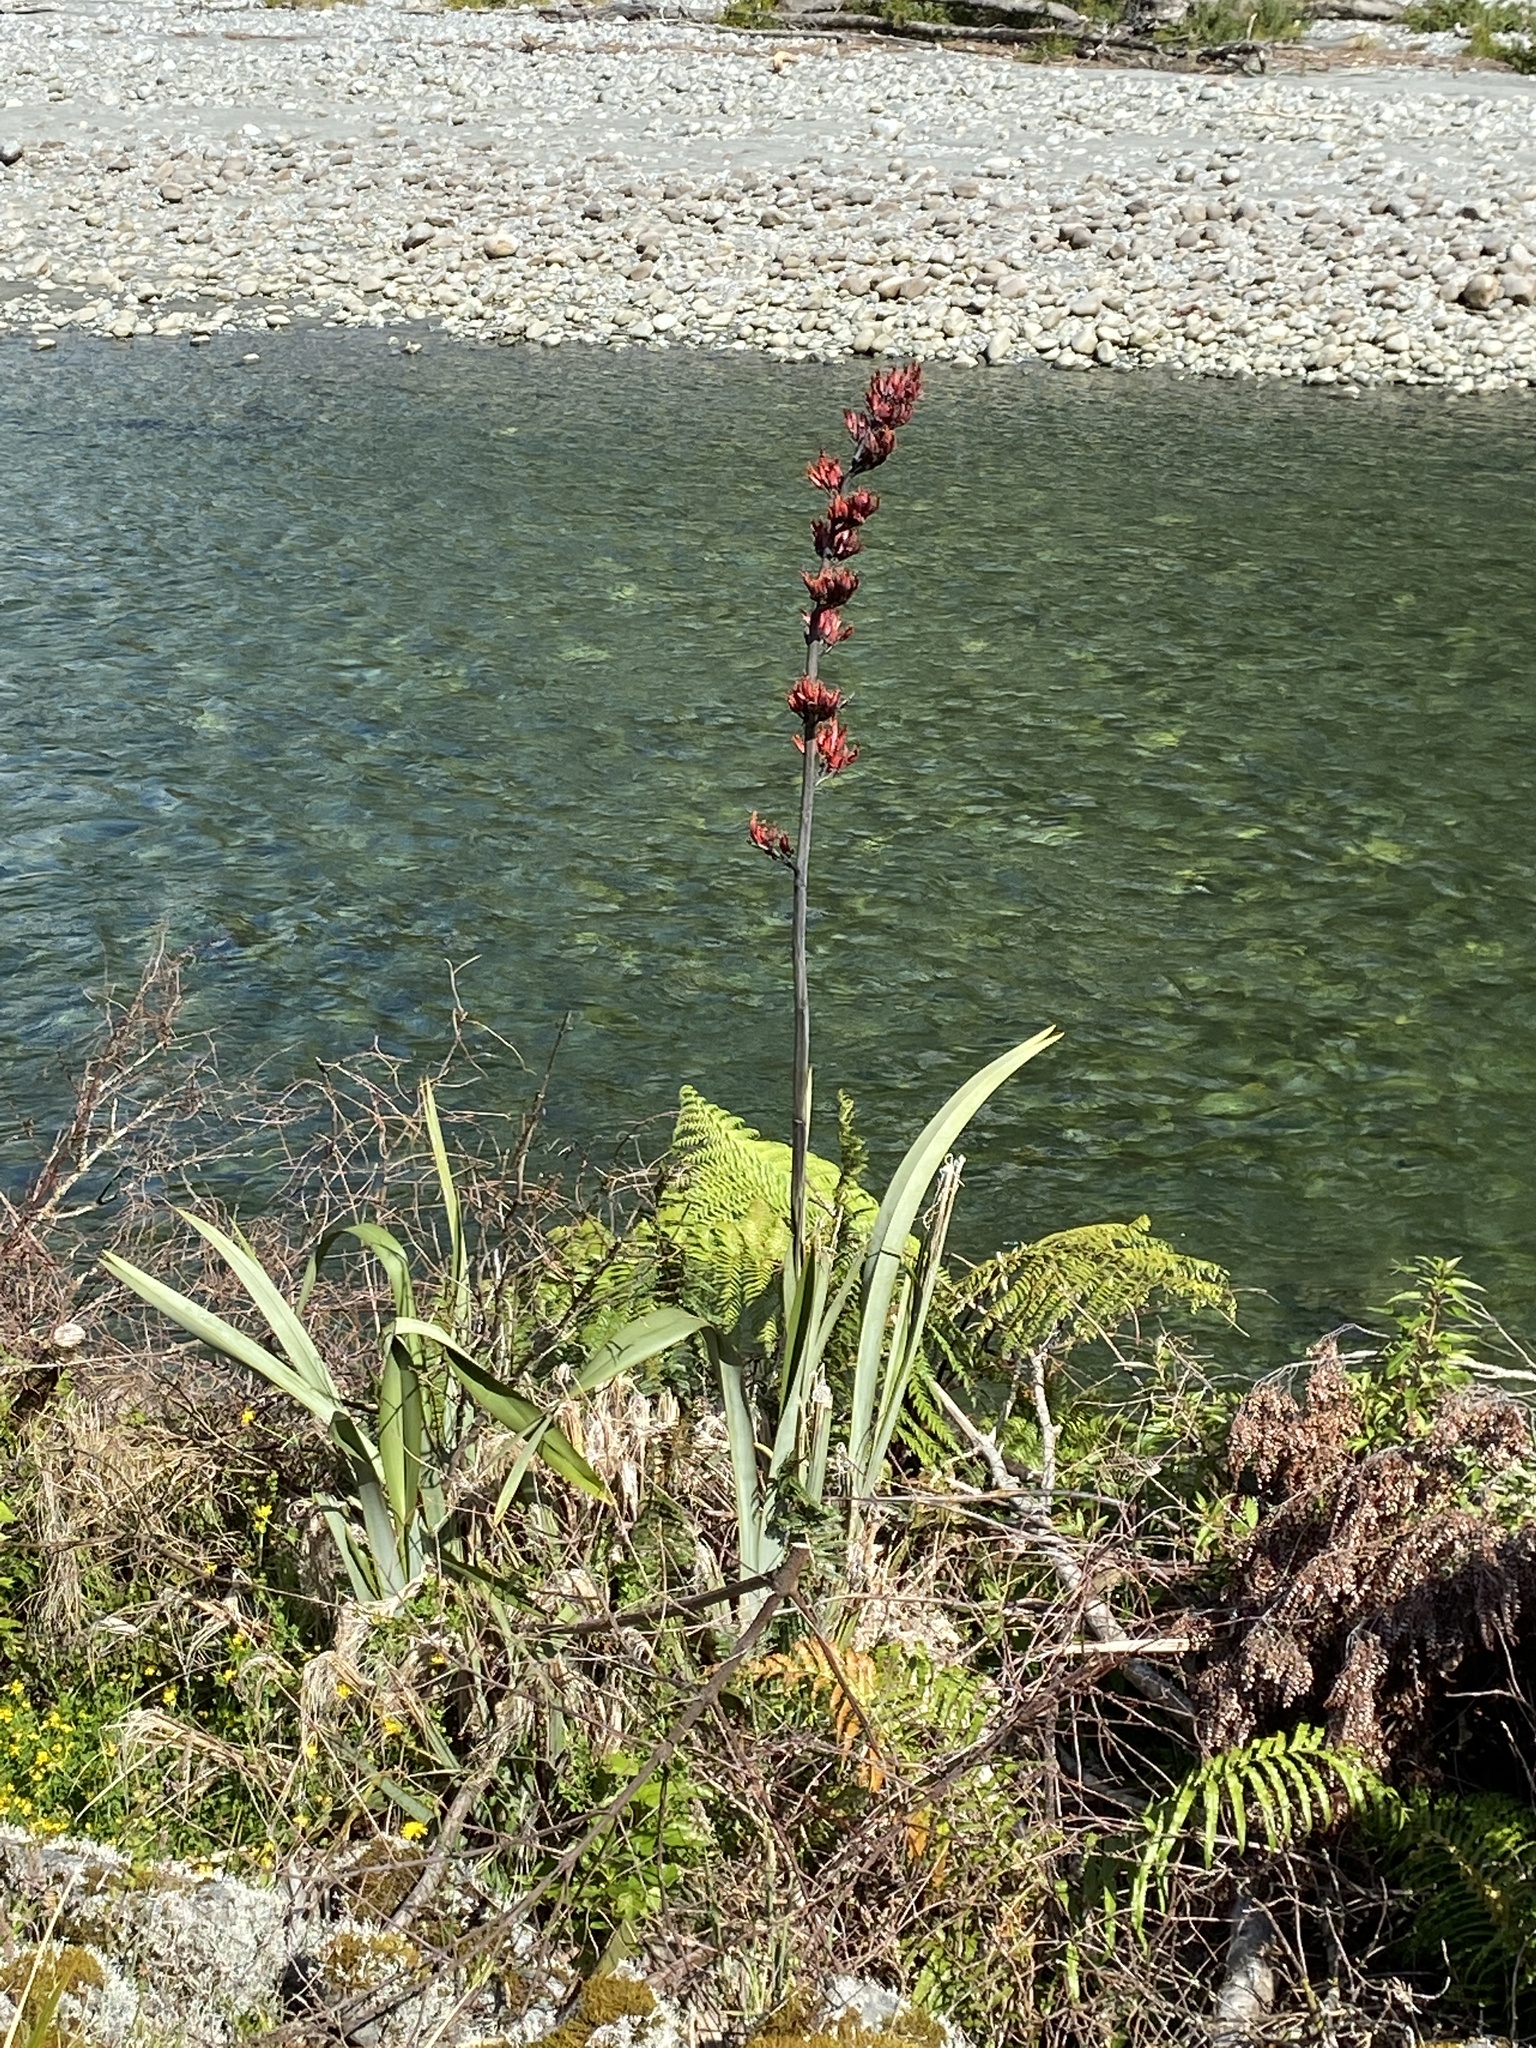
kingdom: Plantae
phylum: Tracheophyta
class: Liliopsida
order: Asparagales
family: Asphodelaceae
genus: Phormium
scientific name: Phormium tenax
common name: New zealand flax
